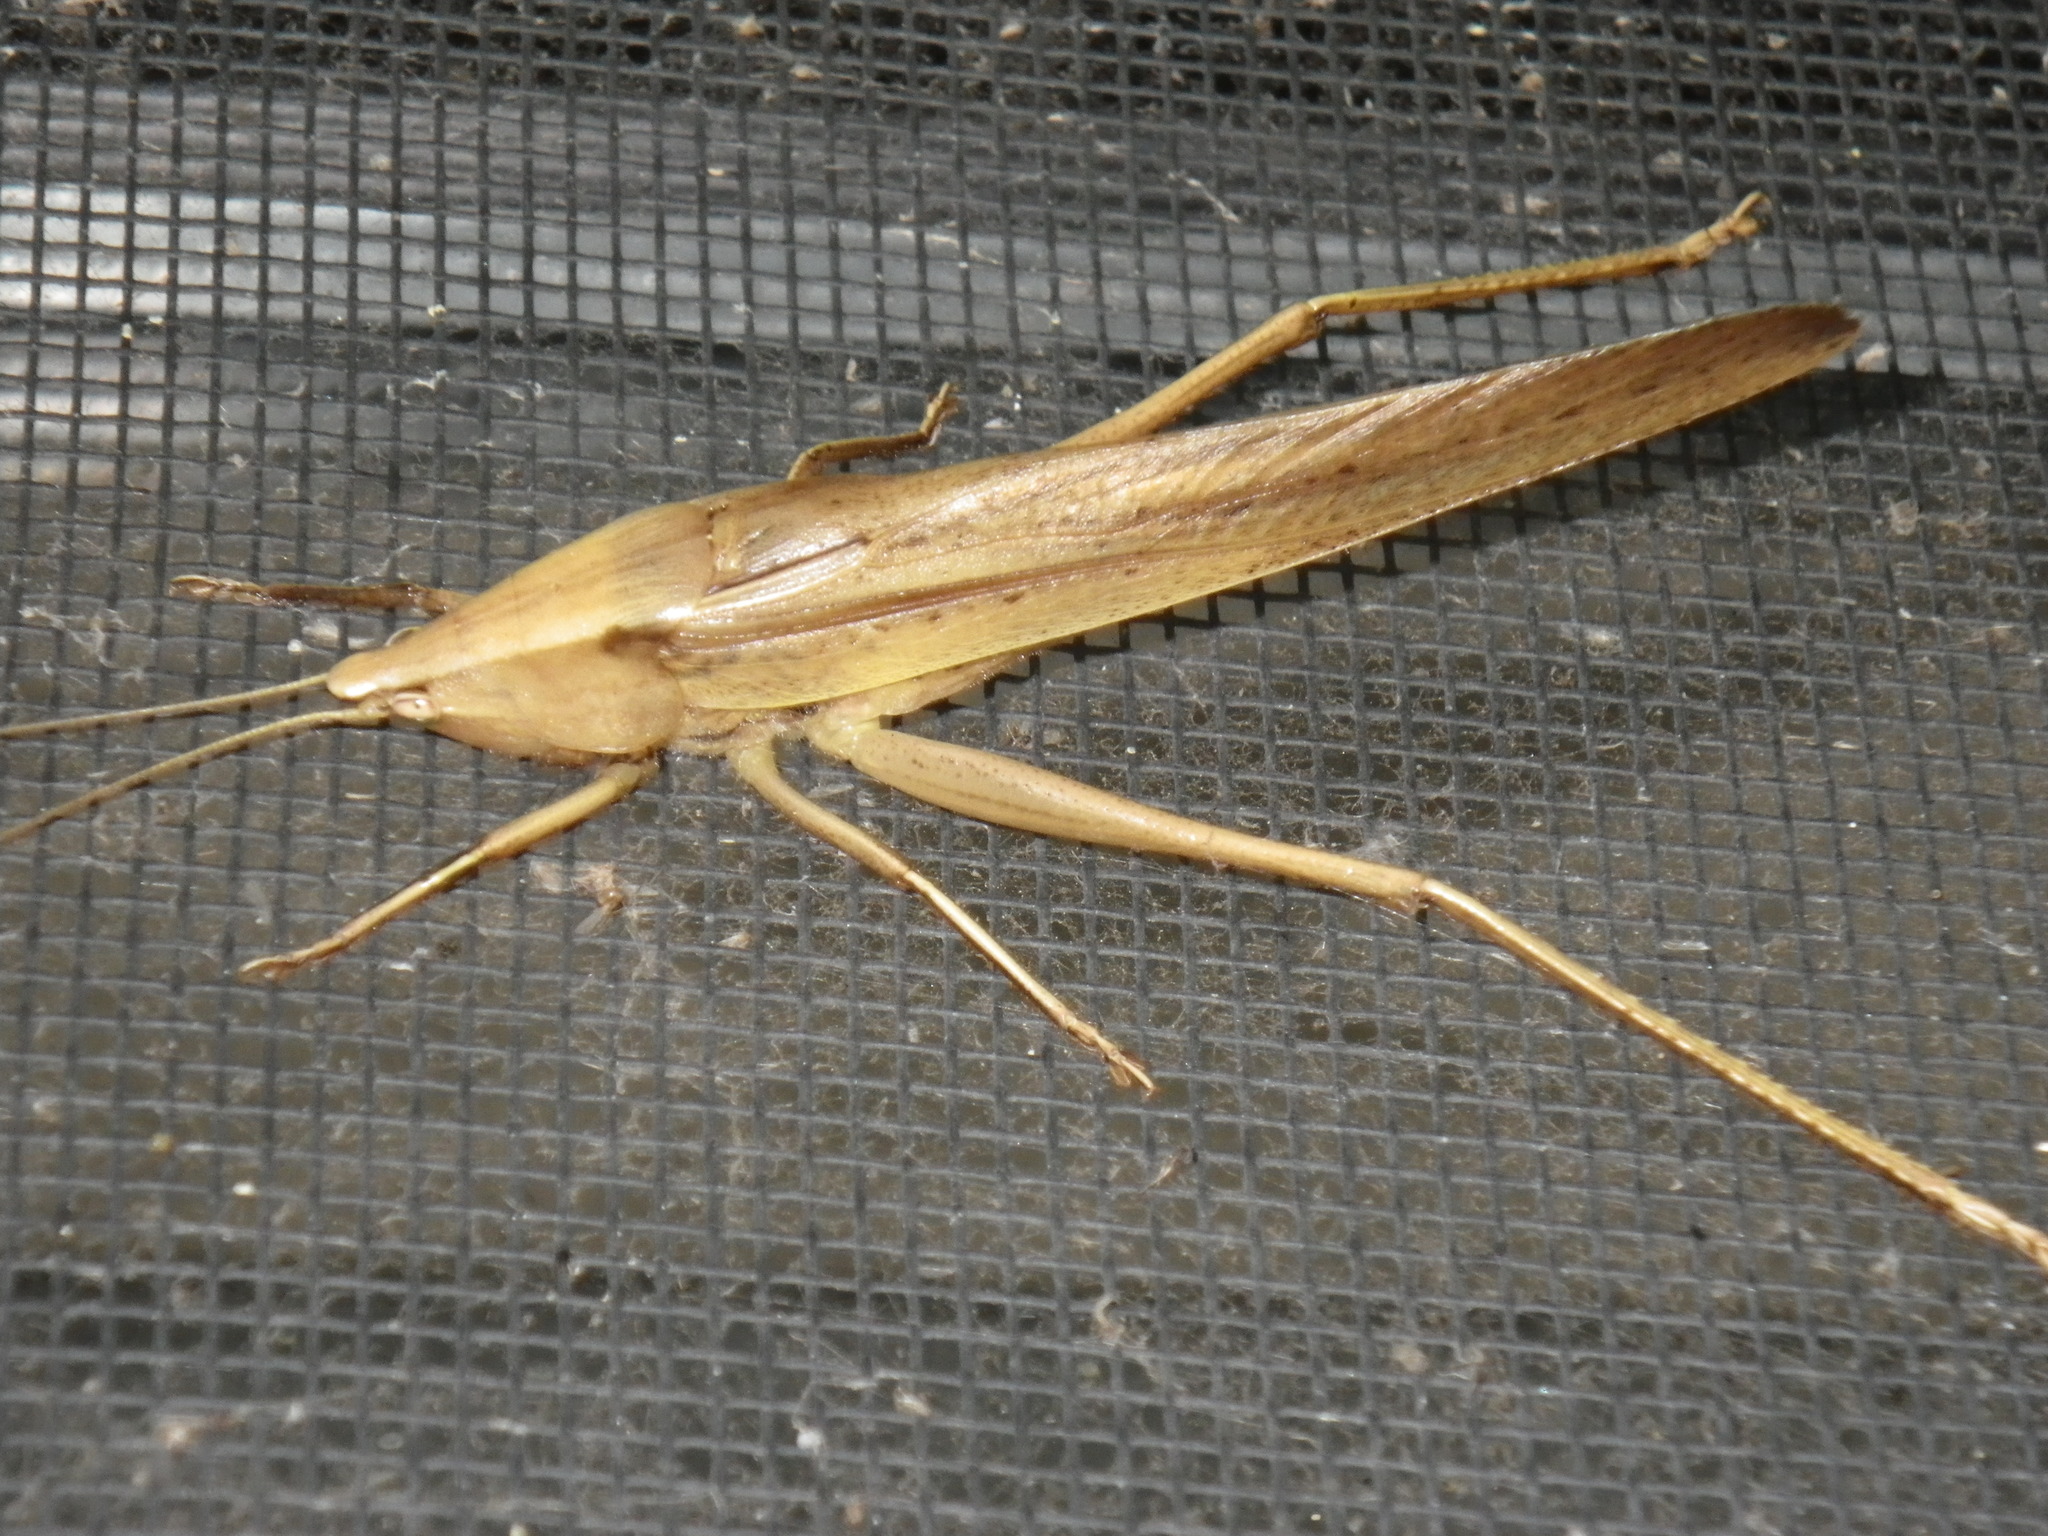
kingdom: Animalia
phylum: Arthropoda
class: Insecta
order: Orthoptera
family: Tettigoniidae
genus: Neoconocephalus
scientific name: Neoconocephalus triops
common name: Broad-tipped conehead
